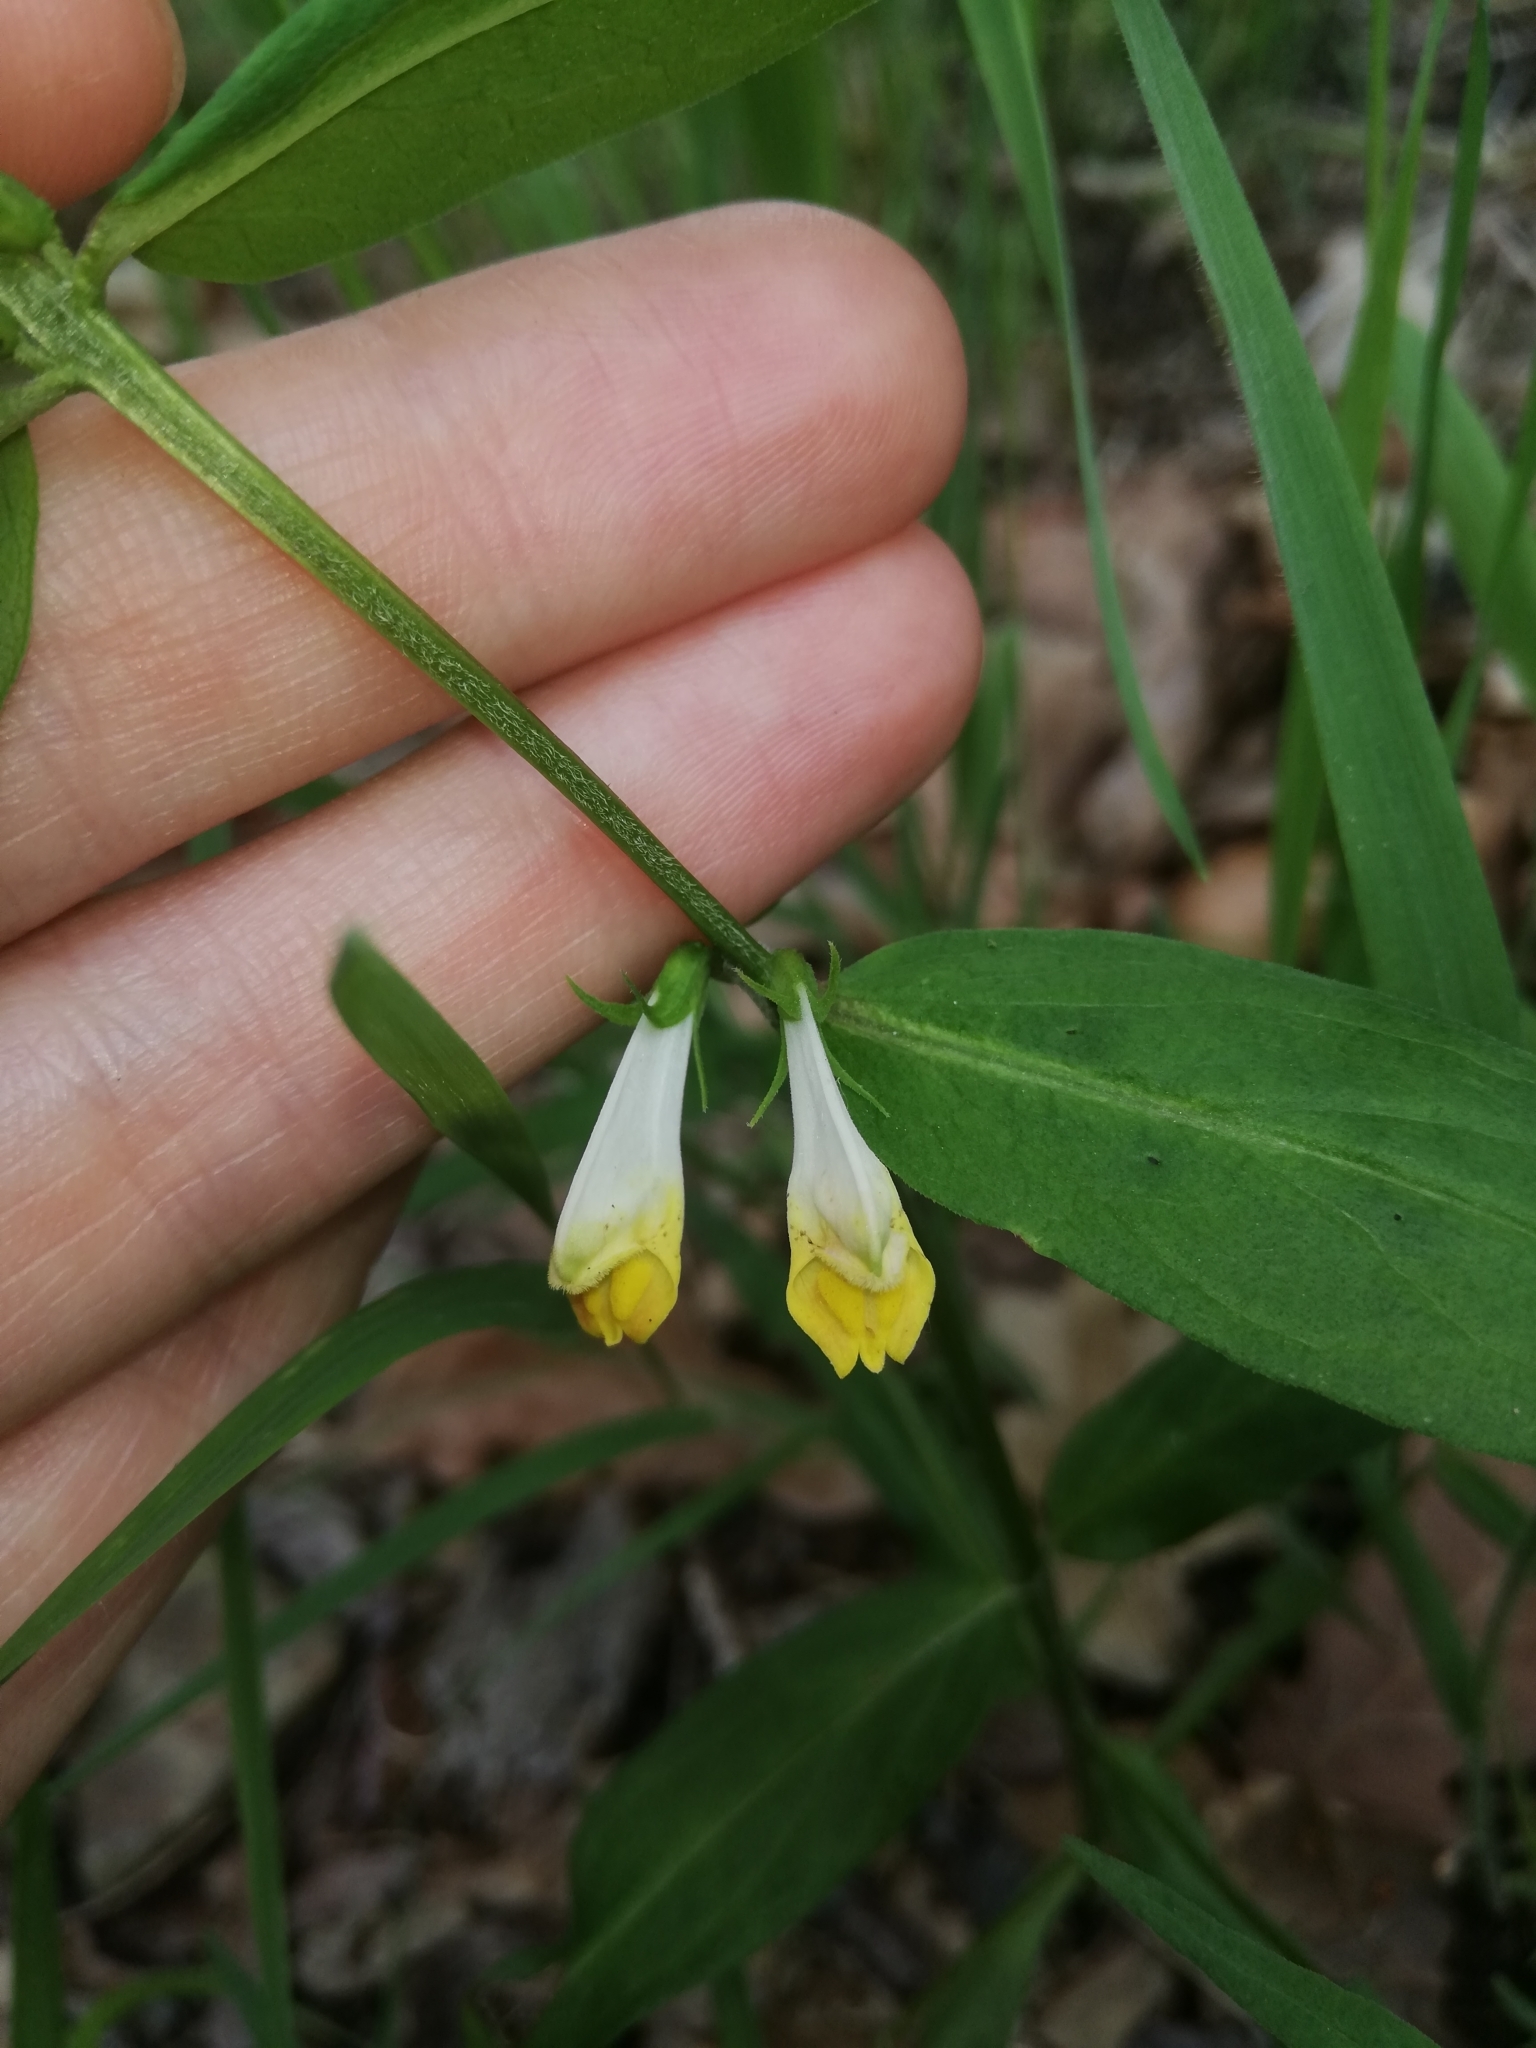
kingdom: Plantae
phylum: Tracheophyta
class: Magnoliopsida
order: Lamiales
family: Orobanchaceae
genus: Melampyrum
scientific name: Melampyrum pratense
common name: Common cow-wheat
